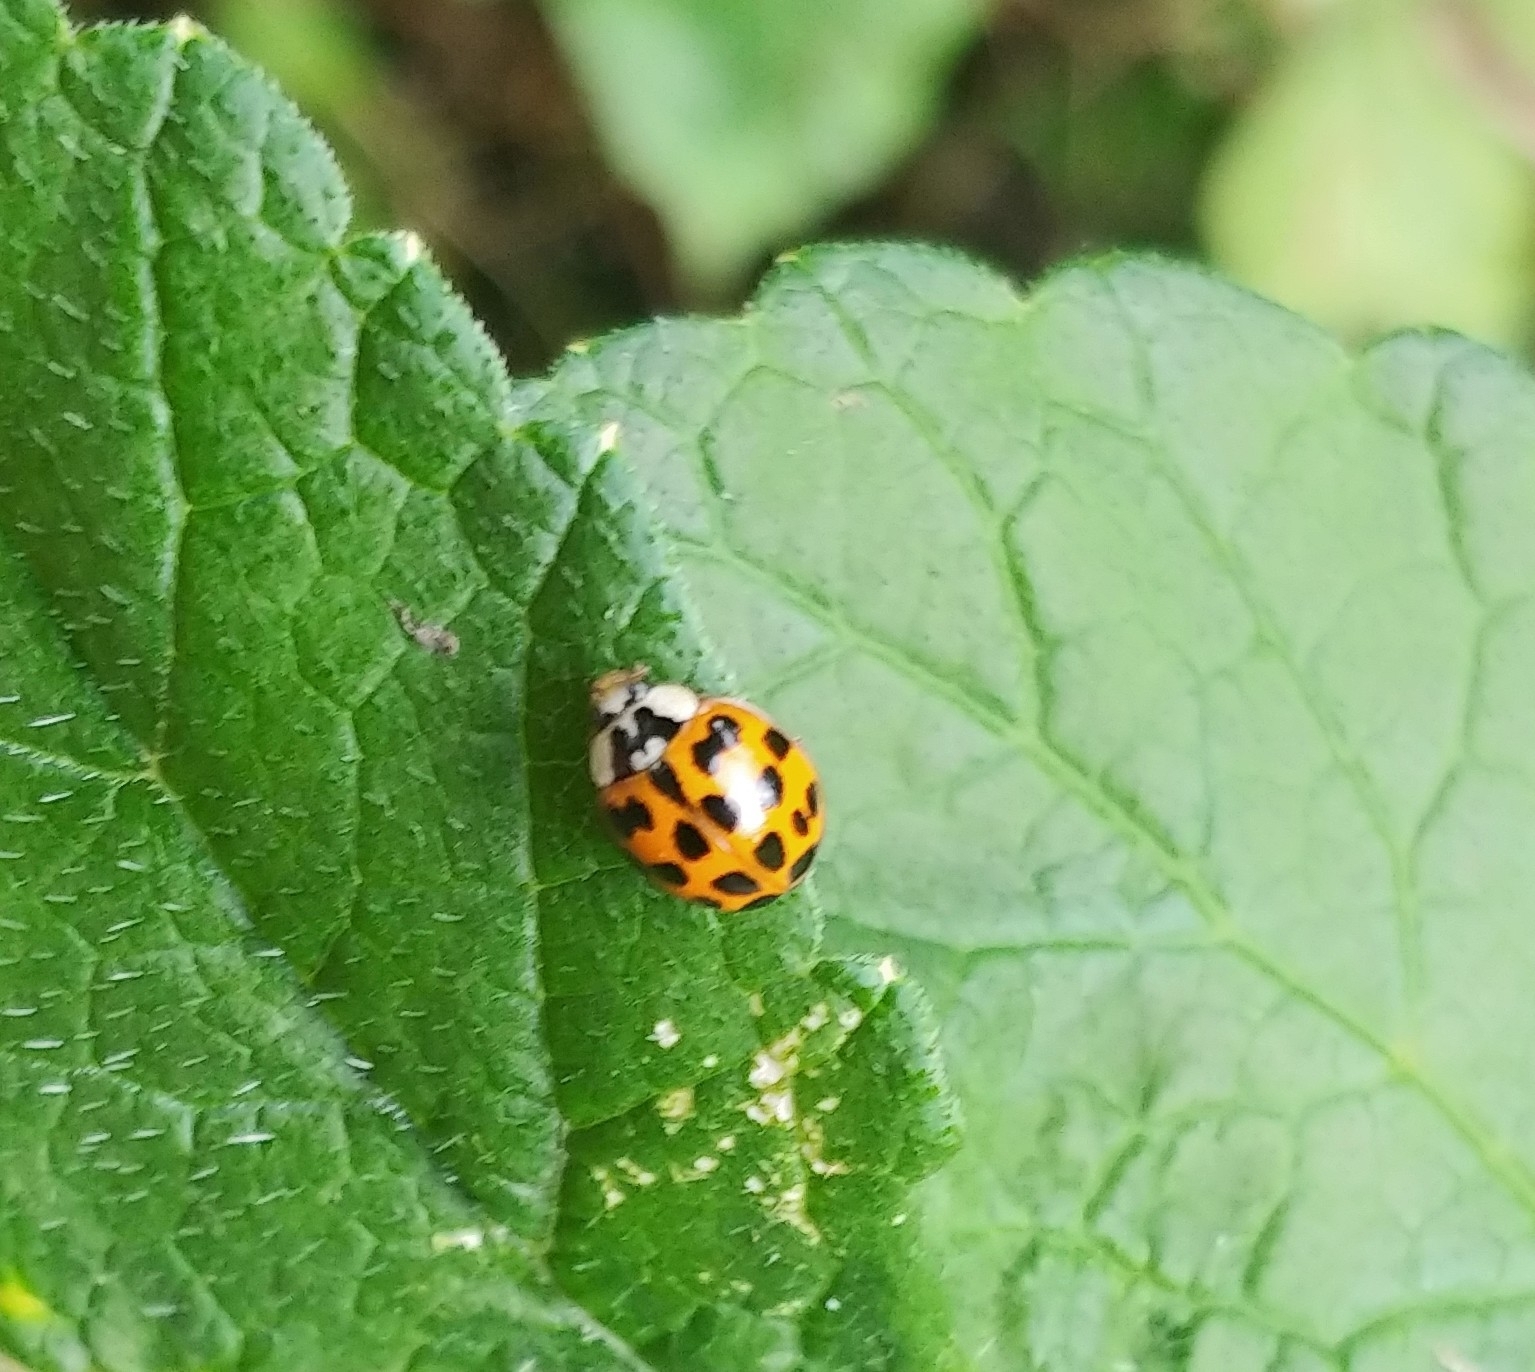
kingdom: Animalia
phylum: Arthropoda
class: Insecta
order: Coleoptera
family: Coccinellidae
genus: Harmonia
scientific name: Harmonia axyridis
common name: Harlequin ladybird
